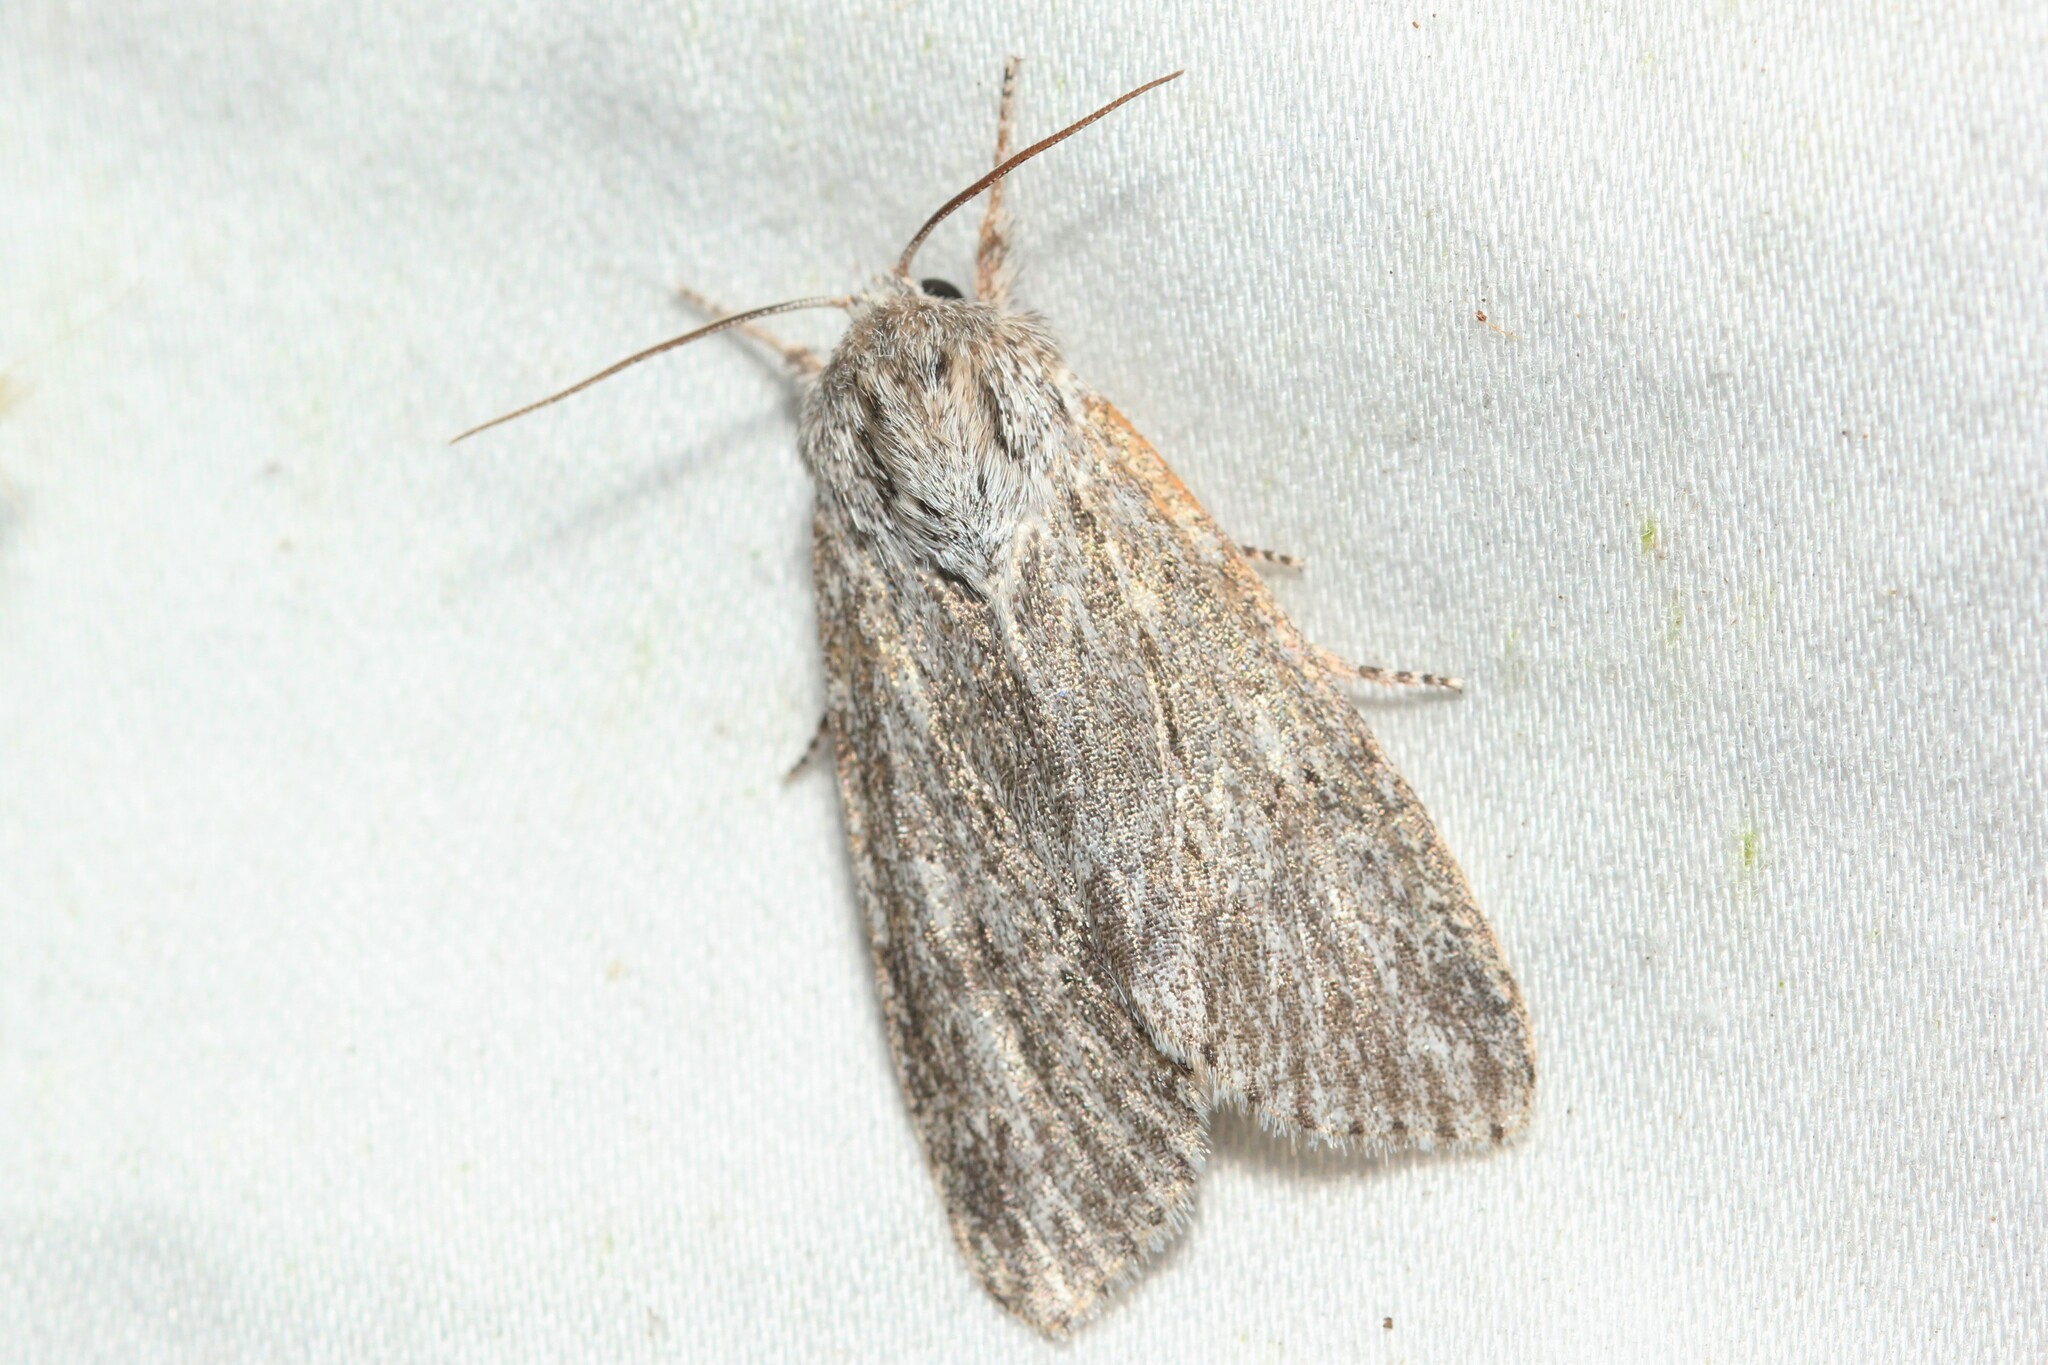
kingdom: Animalia
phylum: Arthropoda
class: Insecta
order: Lepidoptera
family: Noctuidae
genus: Acronicta
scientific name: Acronicta oblinita
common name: Smeared dagger
